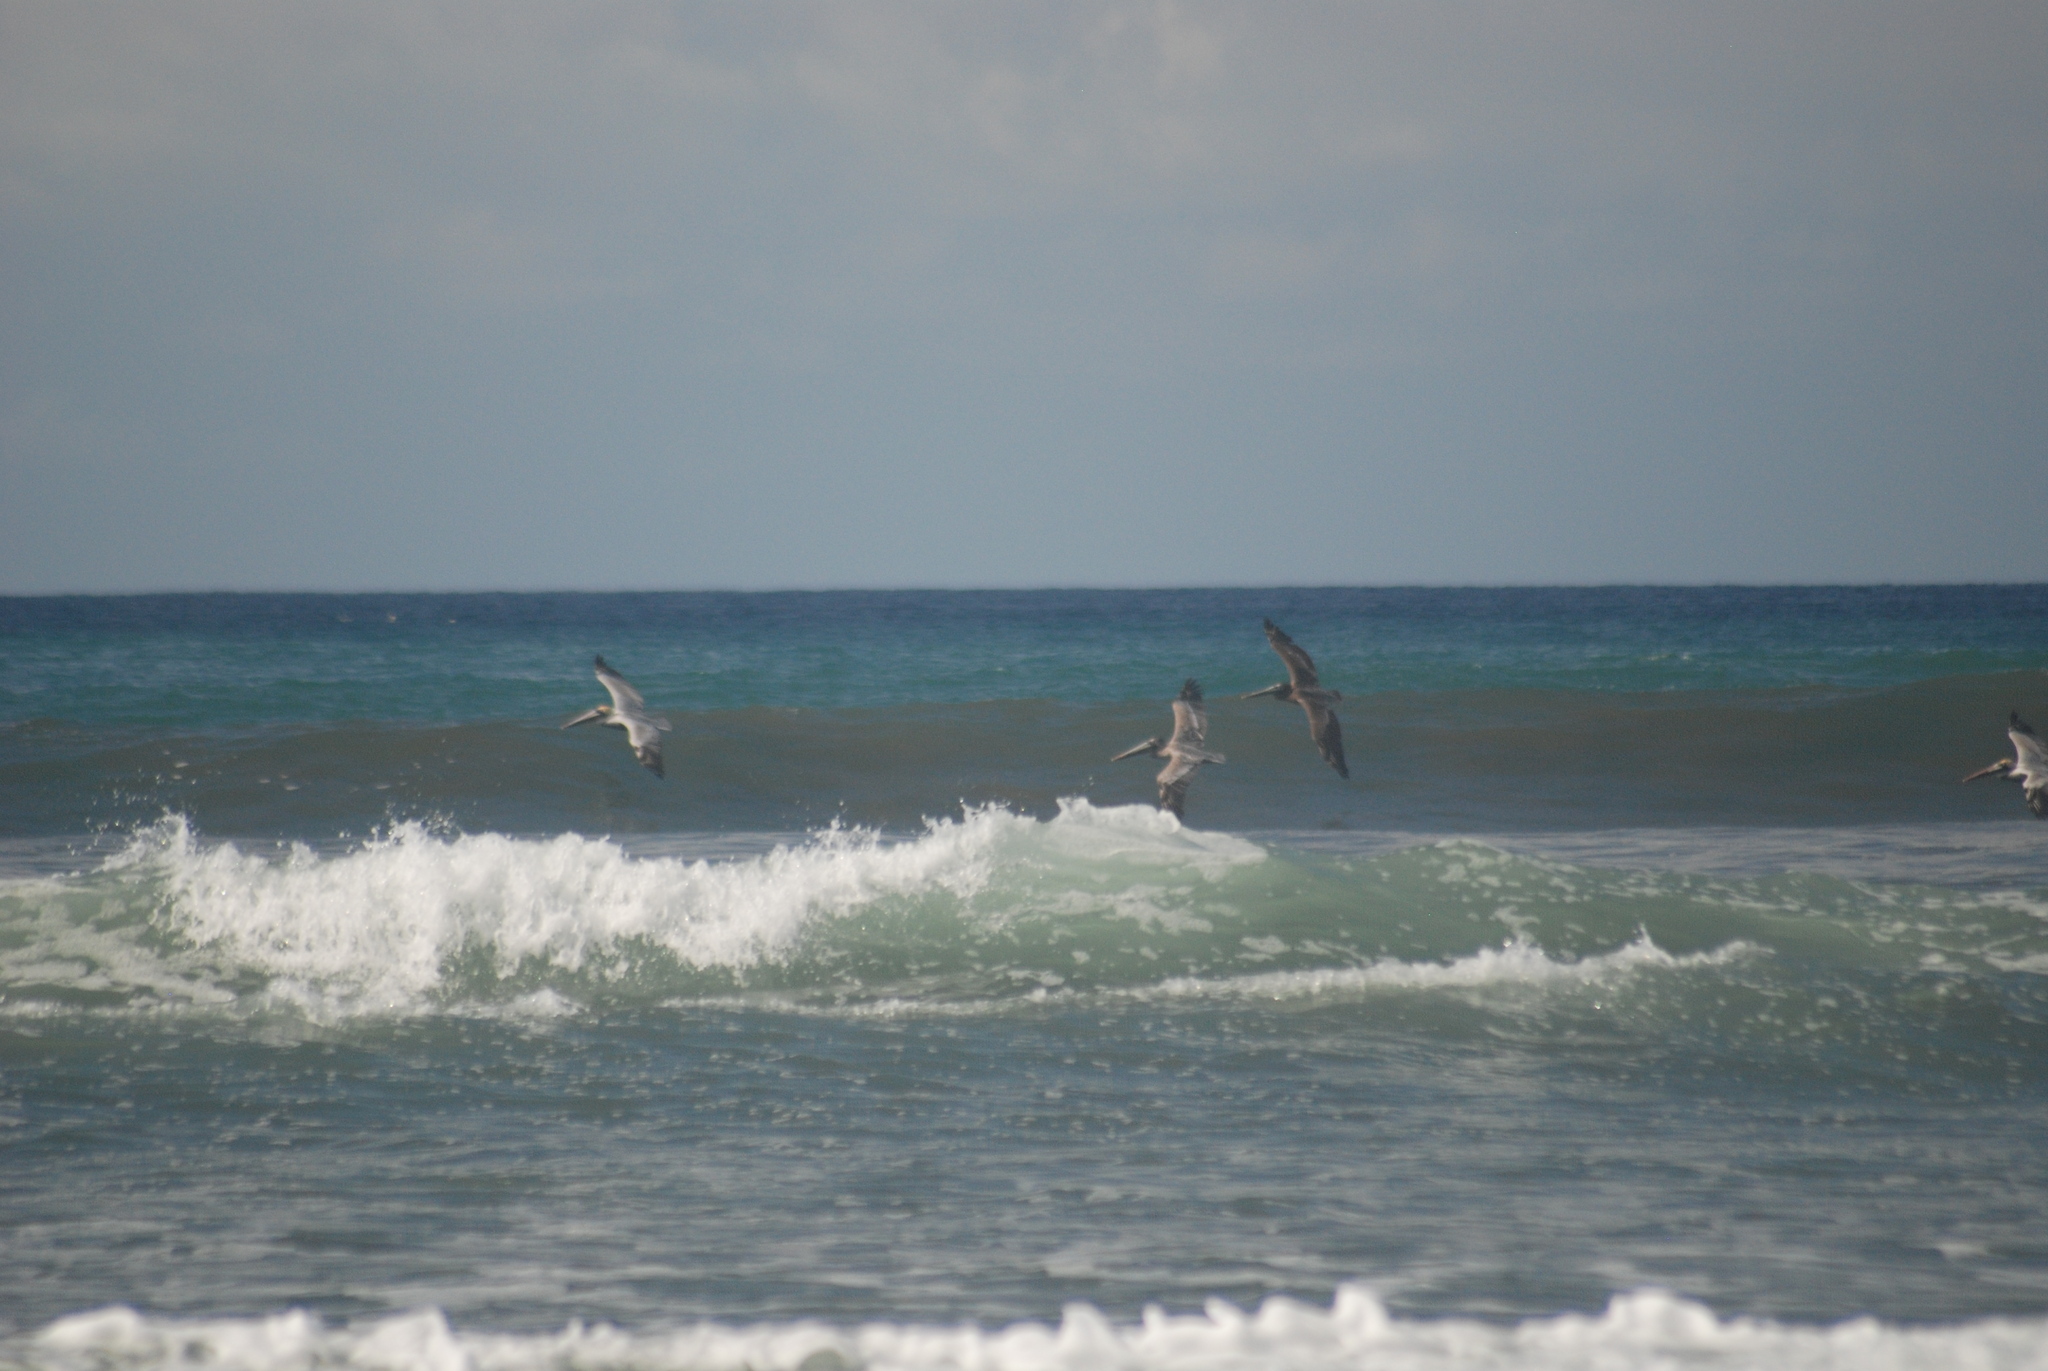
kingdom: Animalia
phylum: Chordata
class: Aves
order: Pelecaniformes
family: Pelecanidae
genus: Pelecanus
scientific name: Pelecanus occidentalis
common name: Brown pelican
